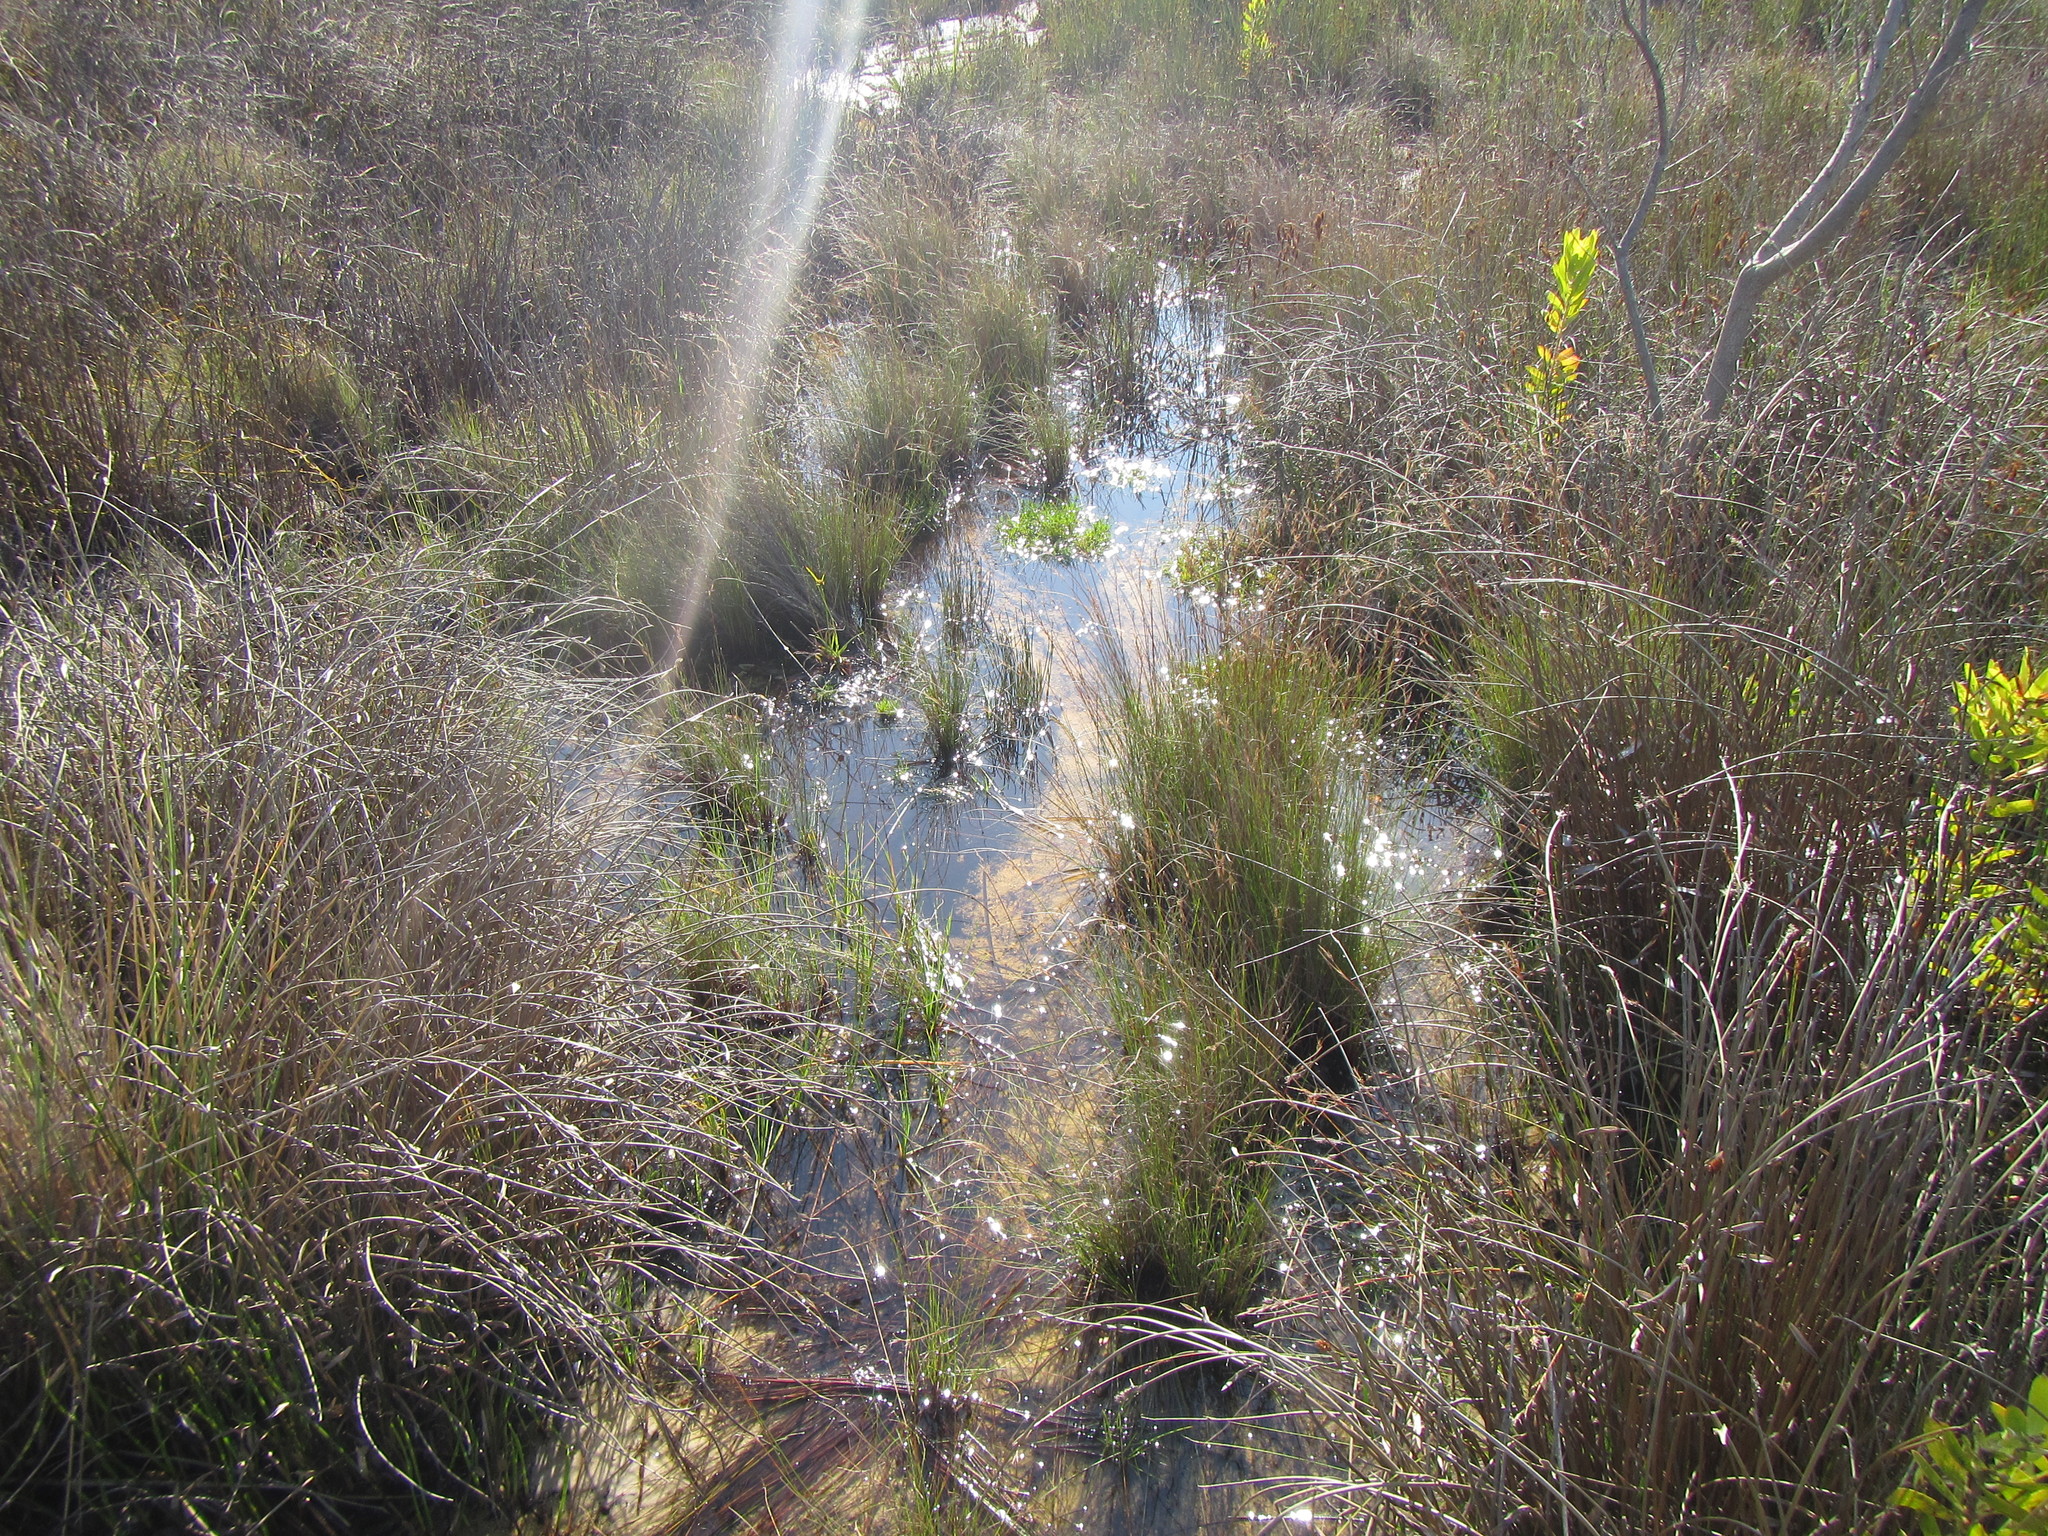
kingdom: Plantae
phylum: Tracheophyta
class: Liliopsida
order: Poales
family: Cyperaceae
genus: Schoenus
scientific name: Schoenus ligulatus
